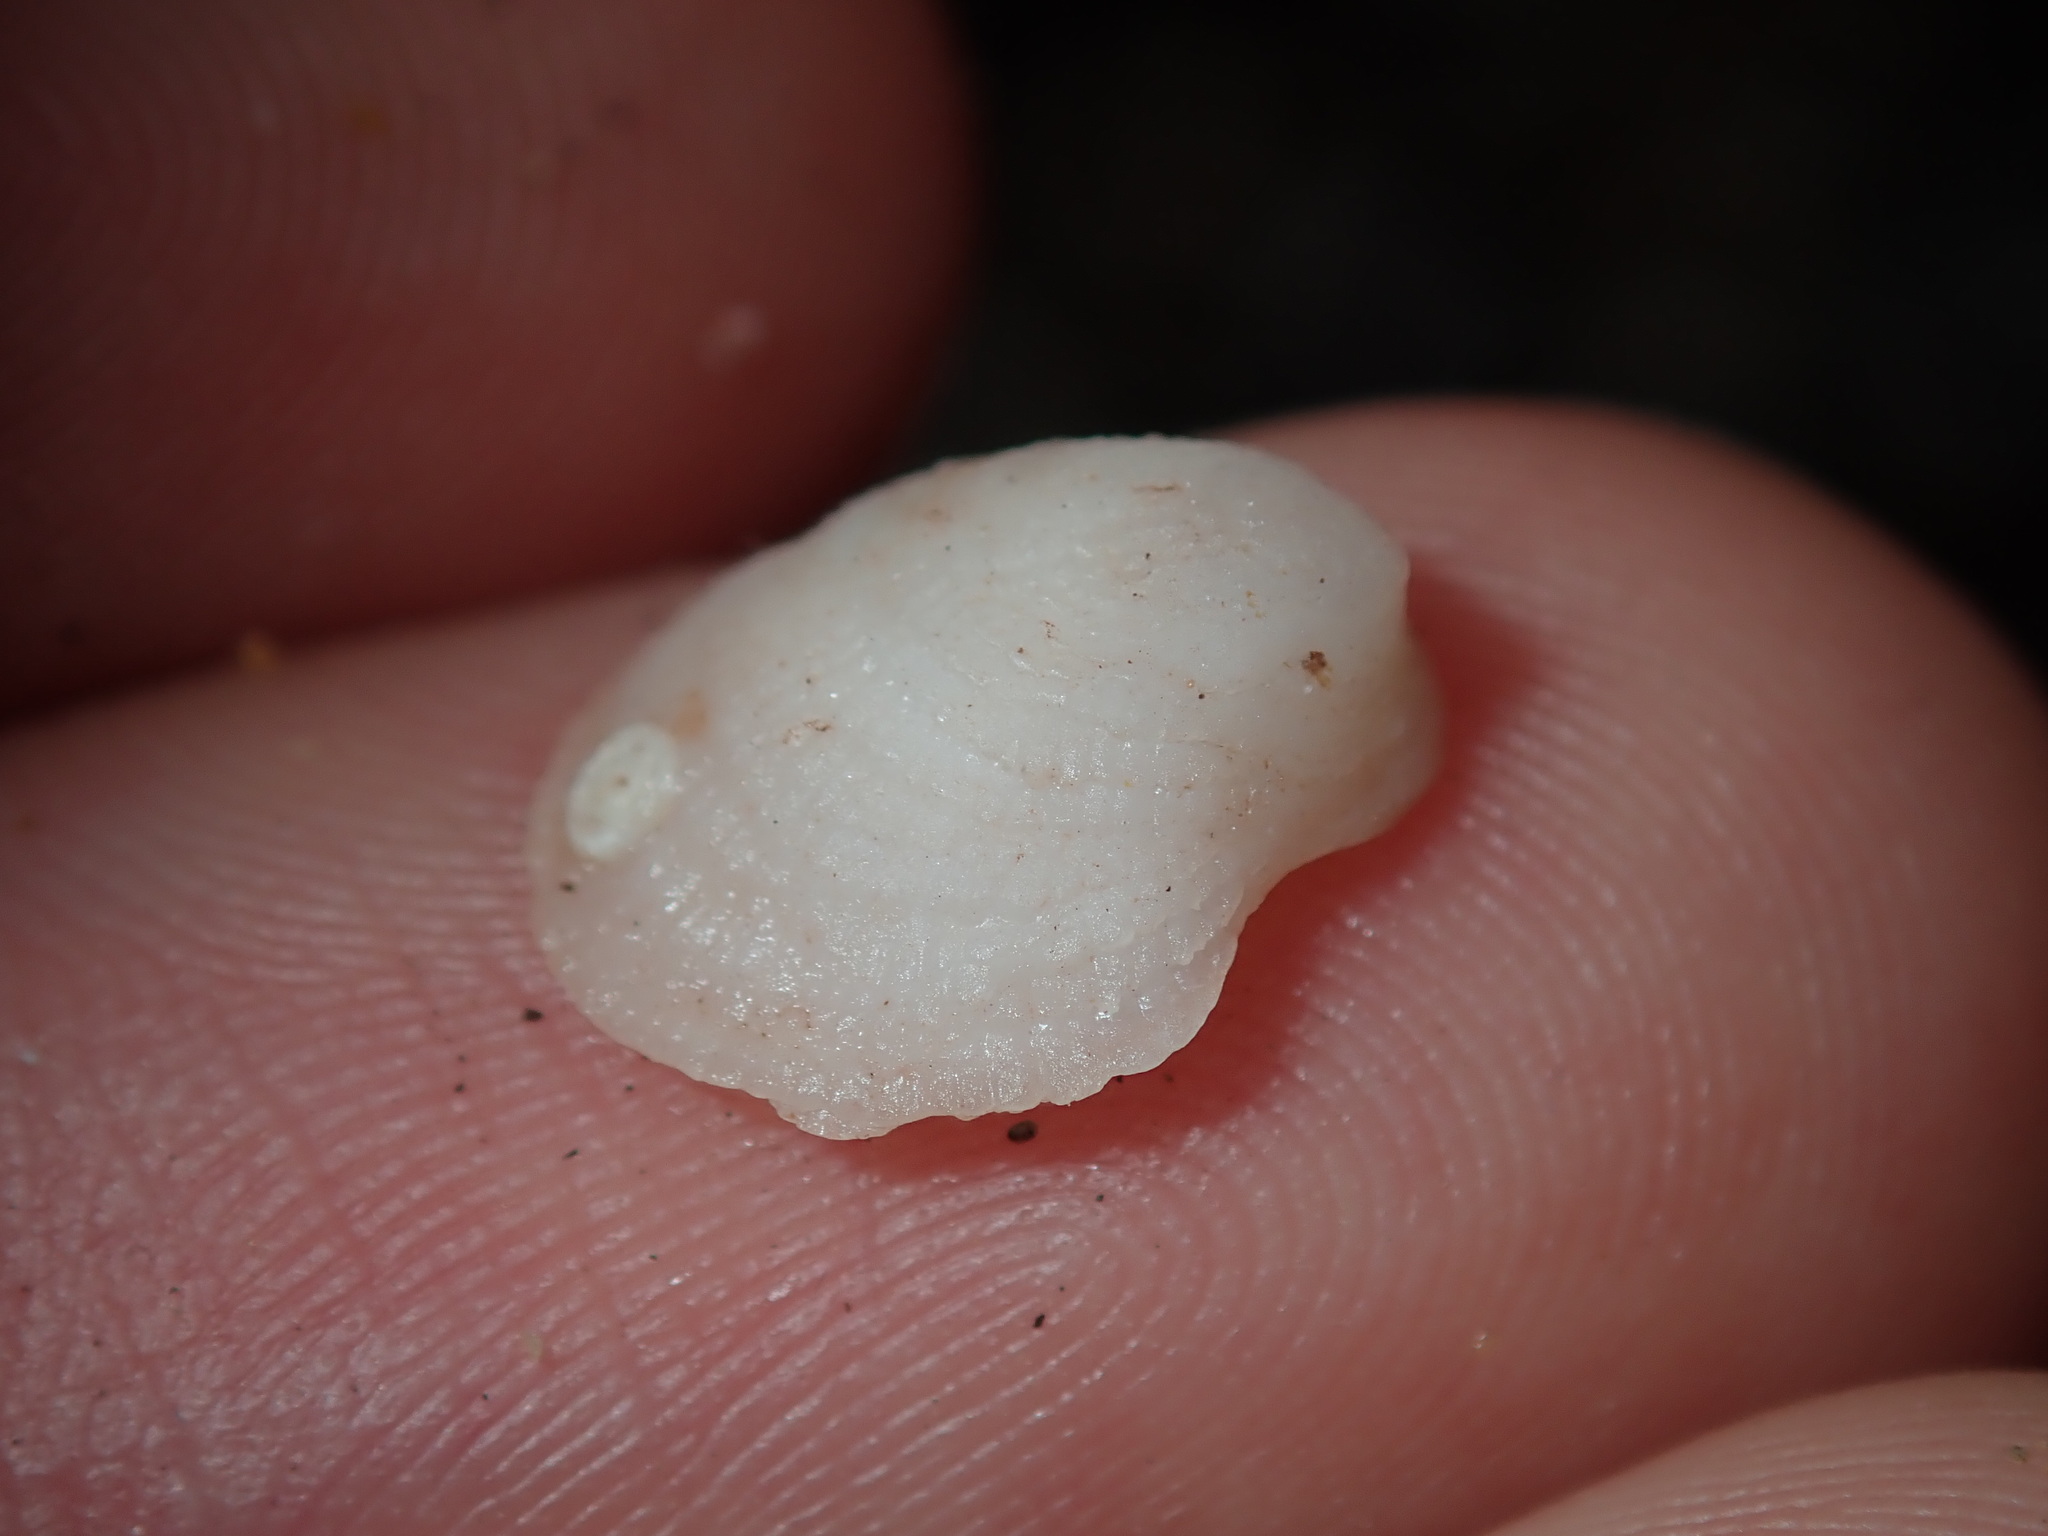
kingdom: Animalia
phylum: Mollusca
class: Gastropoda
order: Littorinimorpha
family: Hipponicidae
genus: Antisabia
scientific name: Antisabia foliacea
